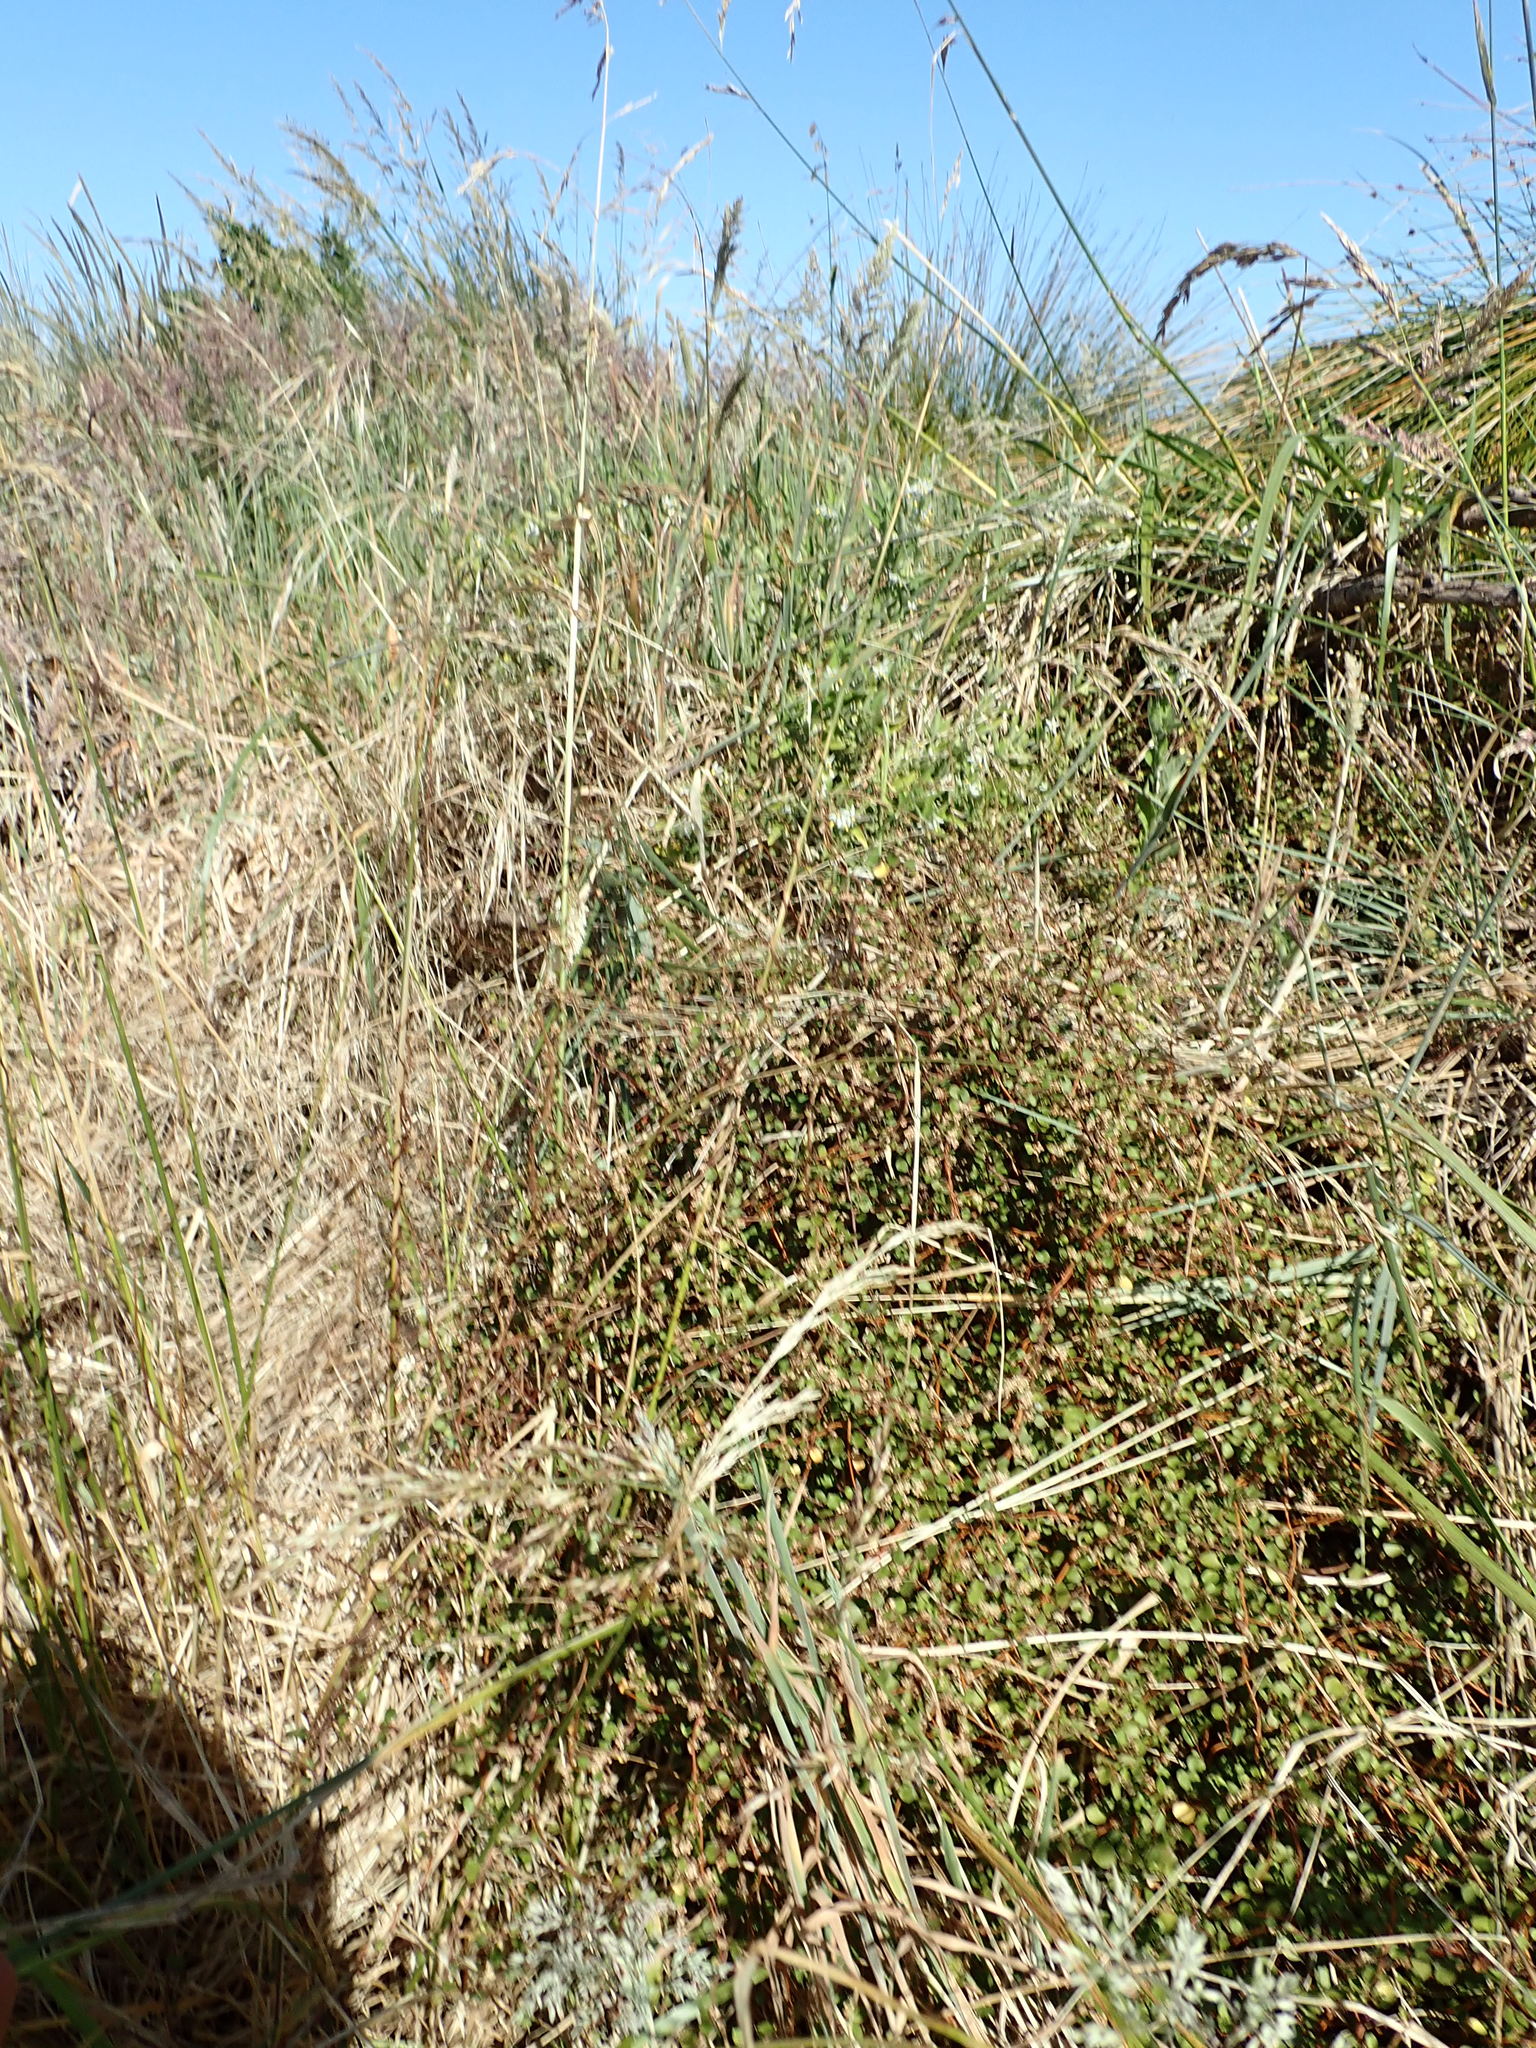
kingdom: Plantae
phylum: Tracheophyta
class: Magnoliopsida
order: Caryophyllales
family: Polygonaceae
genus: Muehlenbeckia
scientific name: Muehlenbeckia complexa
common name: Wireplant
